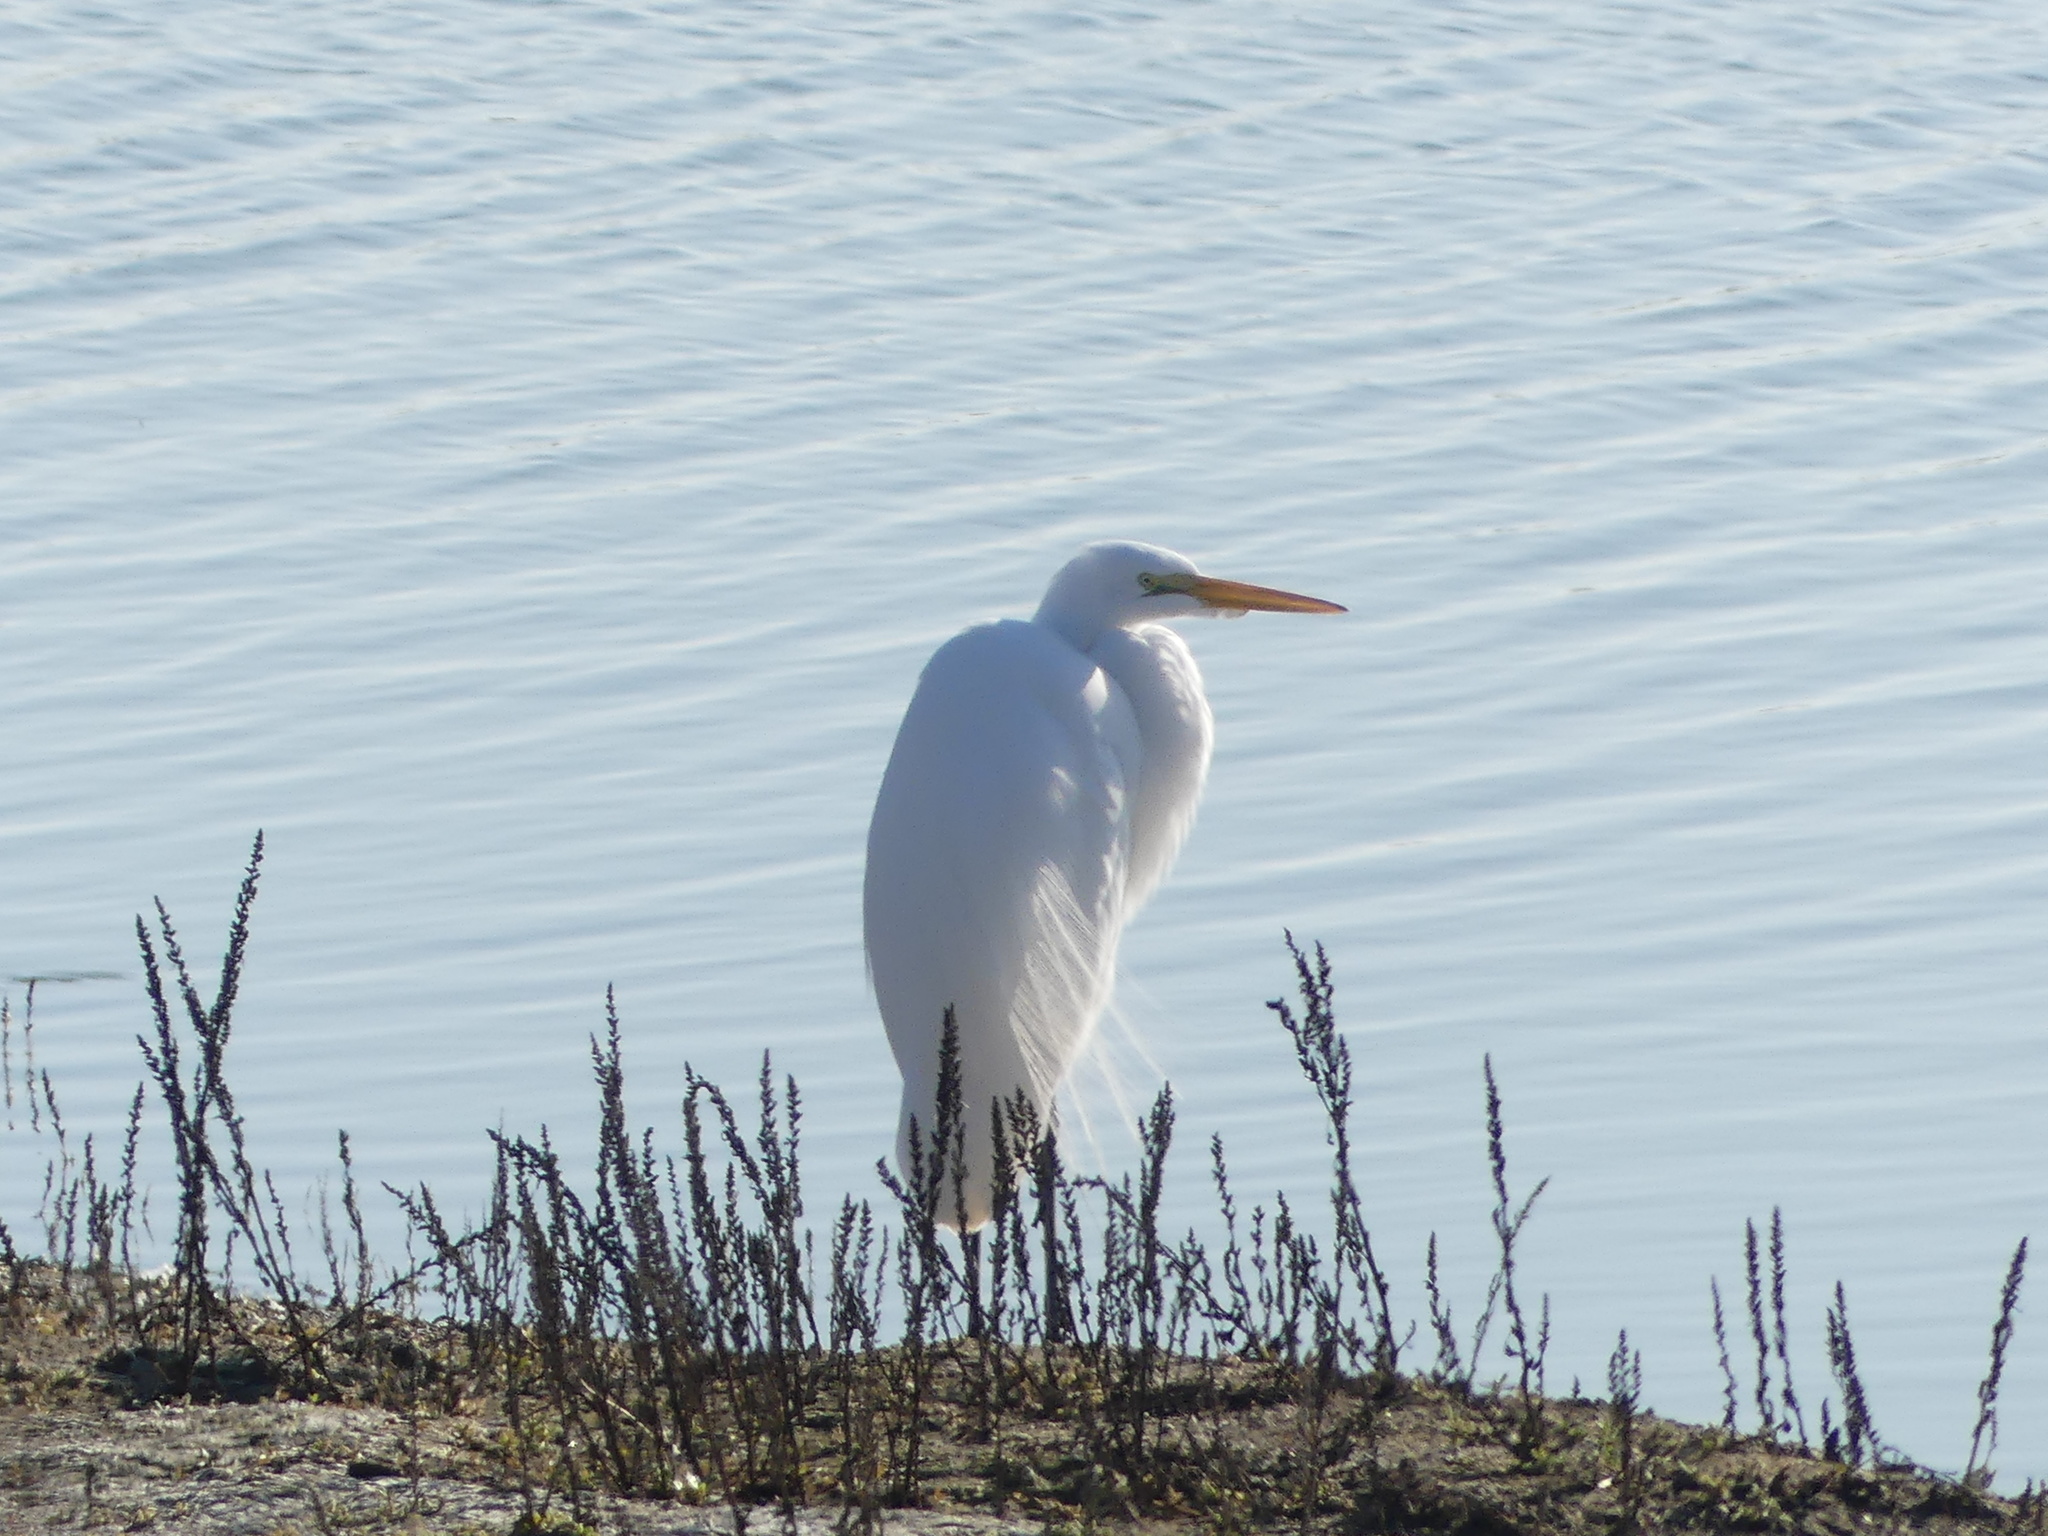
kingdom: Animalia
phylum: Chordata
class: Aves
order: Pelecaniformes
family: Ardeidae
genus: Ardea
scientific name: Ardea alba
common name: Great egret
